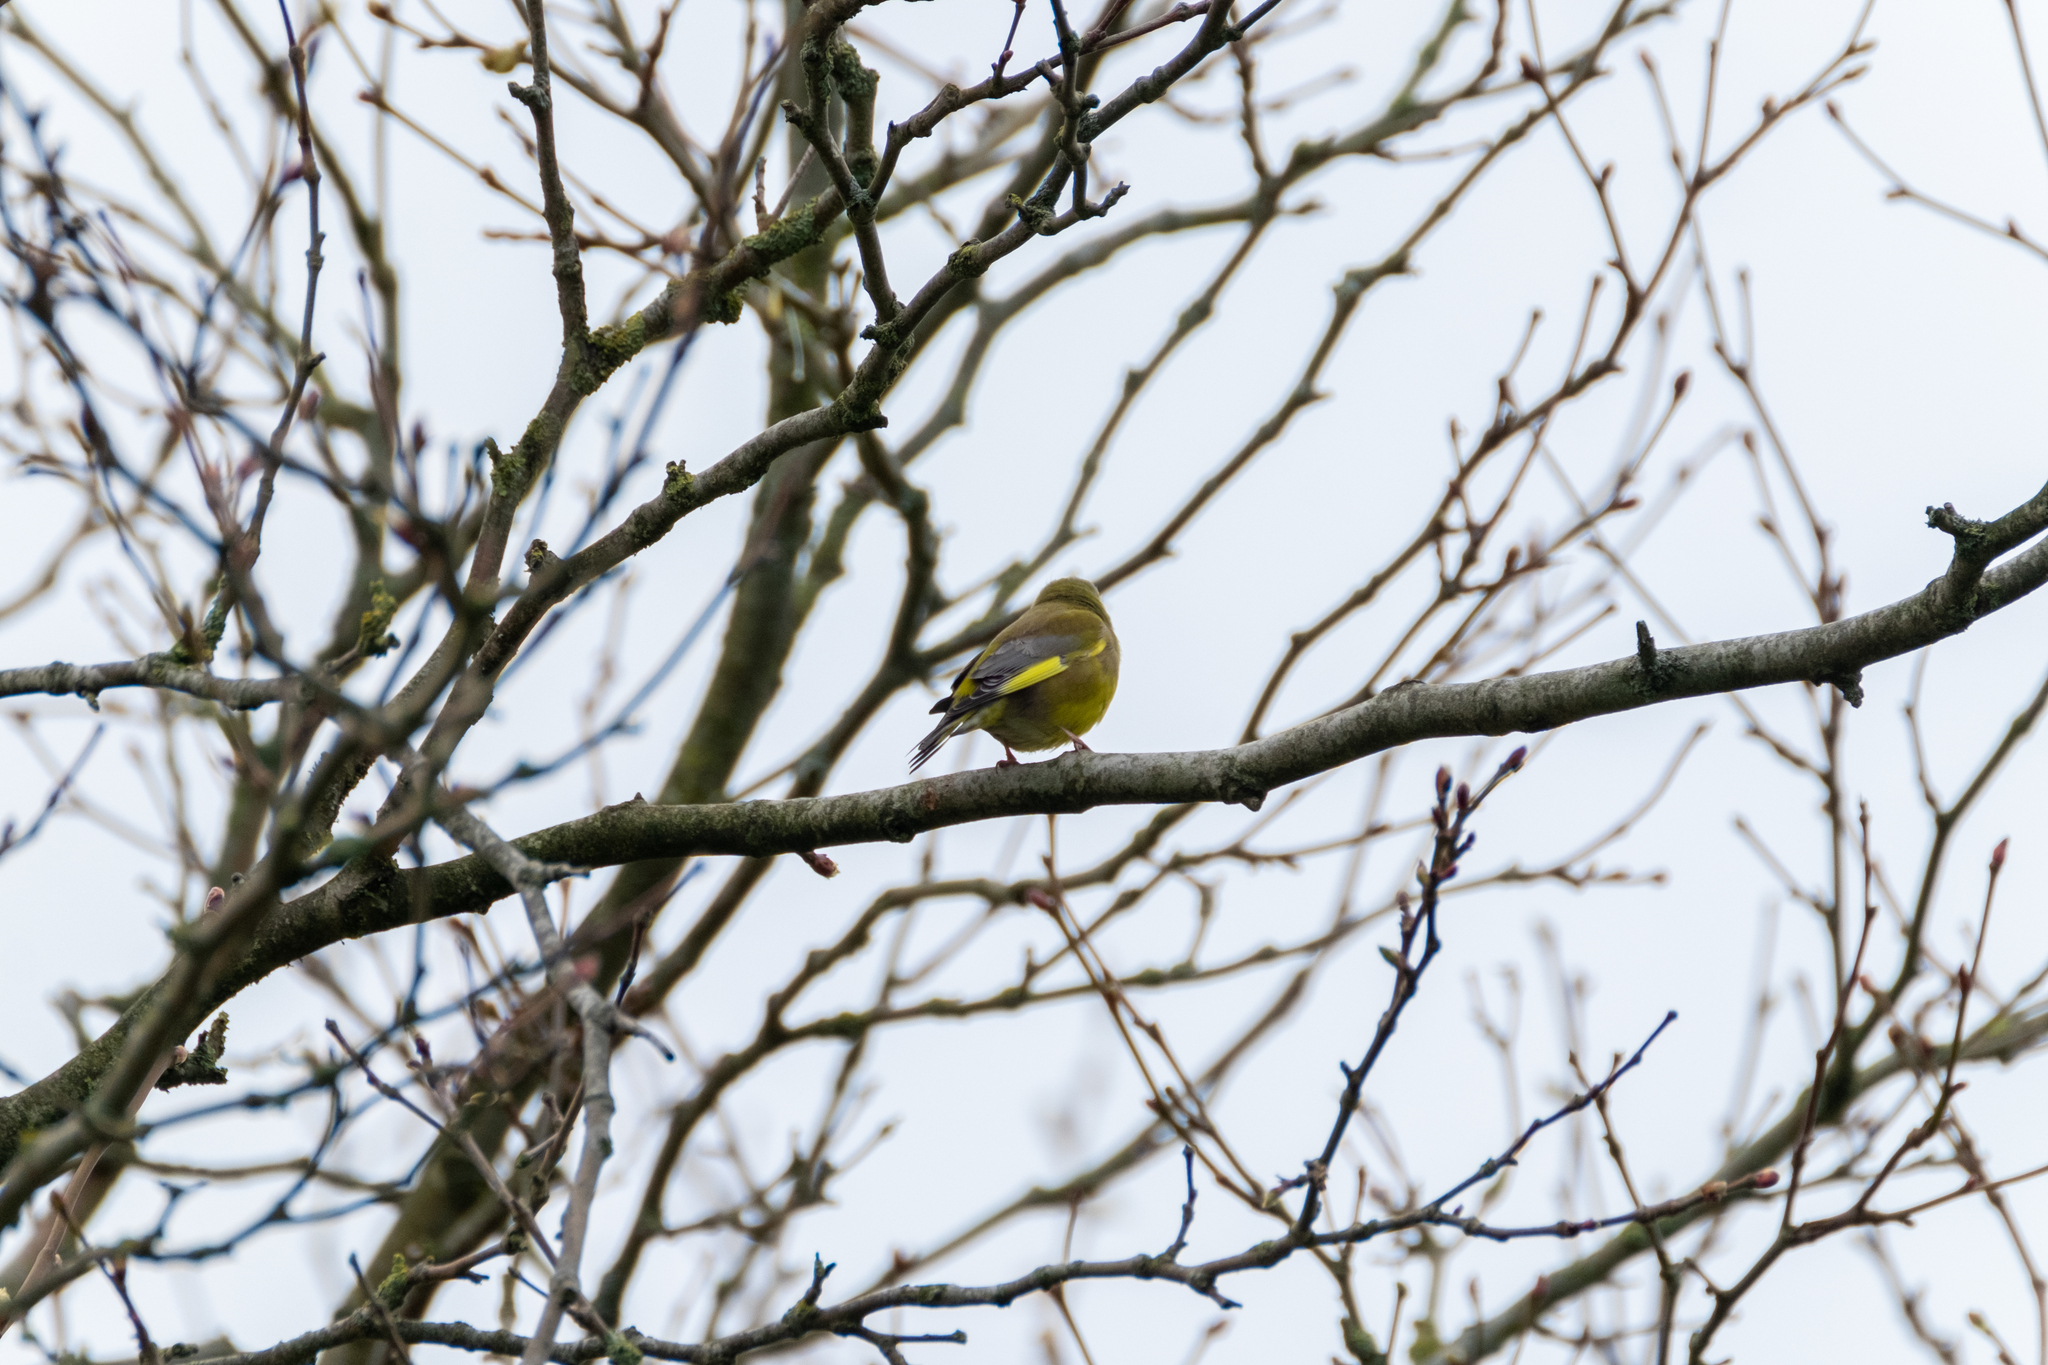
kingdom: Plantae
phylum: Tracheophyta
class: Liliopsida
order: Poales
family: Poaceae
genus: Chloris
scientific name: Chloris chloris
